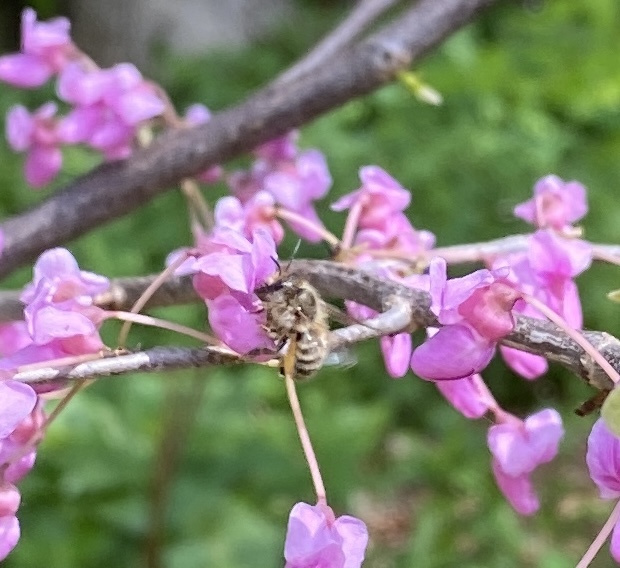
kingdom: Animalia
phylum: Arthropoda
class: Insecta
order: Hymenoptera
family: Megachilidae
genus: Osmia
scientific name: Osmia cornifrons
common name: Horn-faced bee
